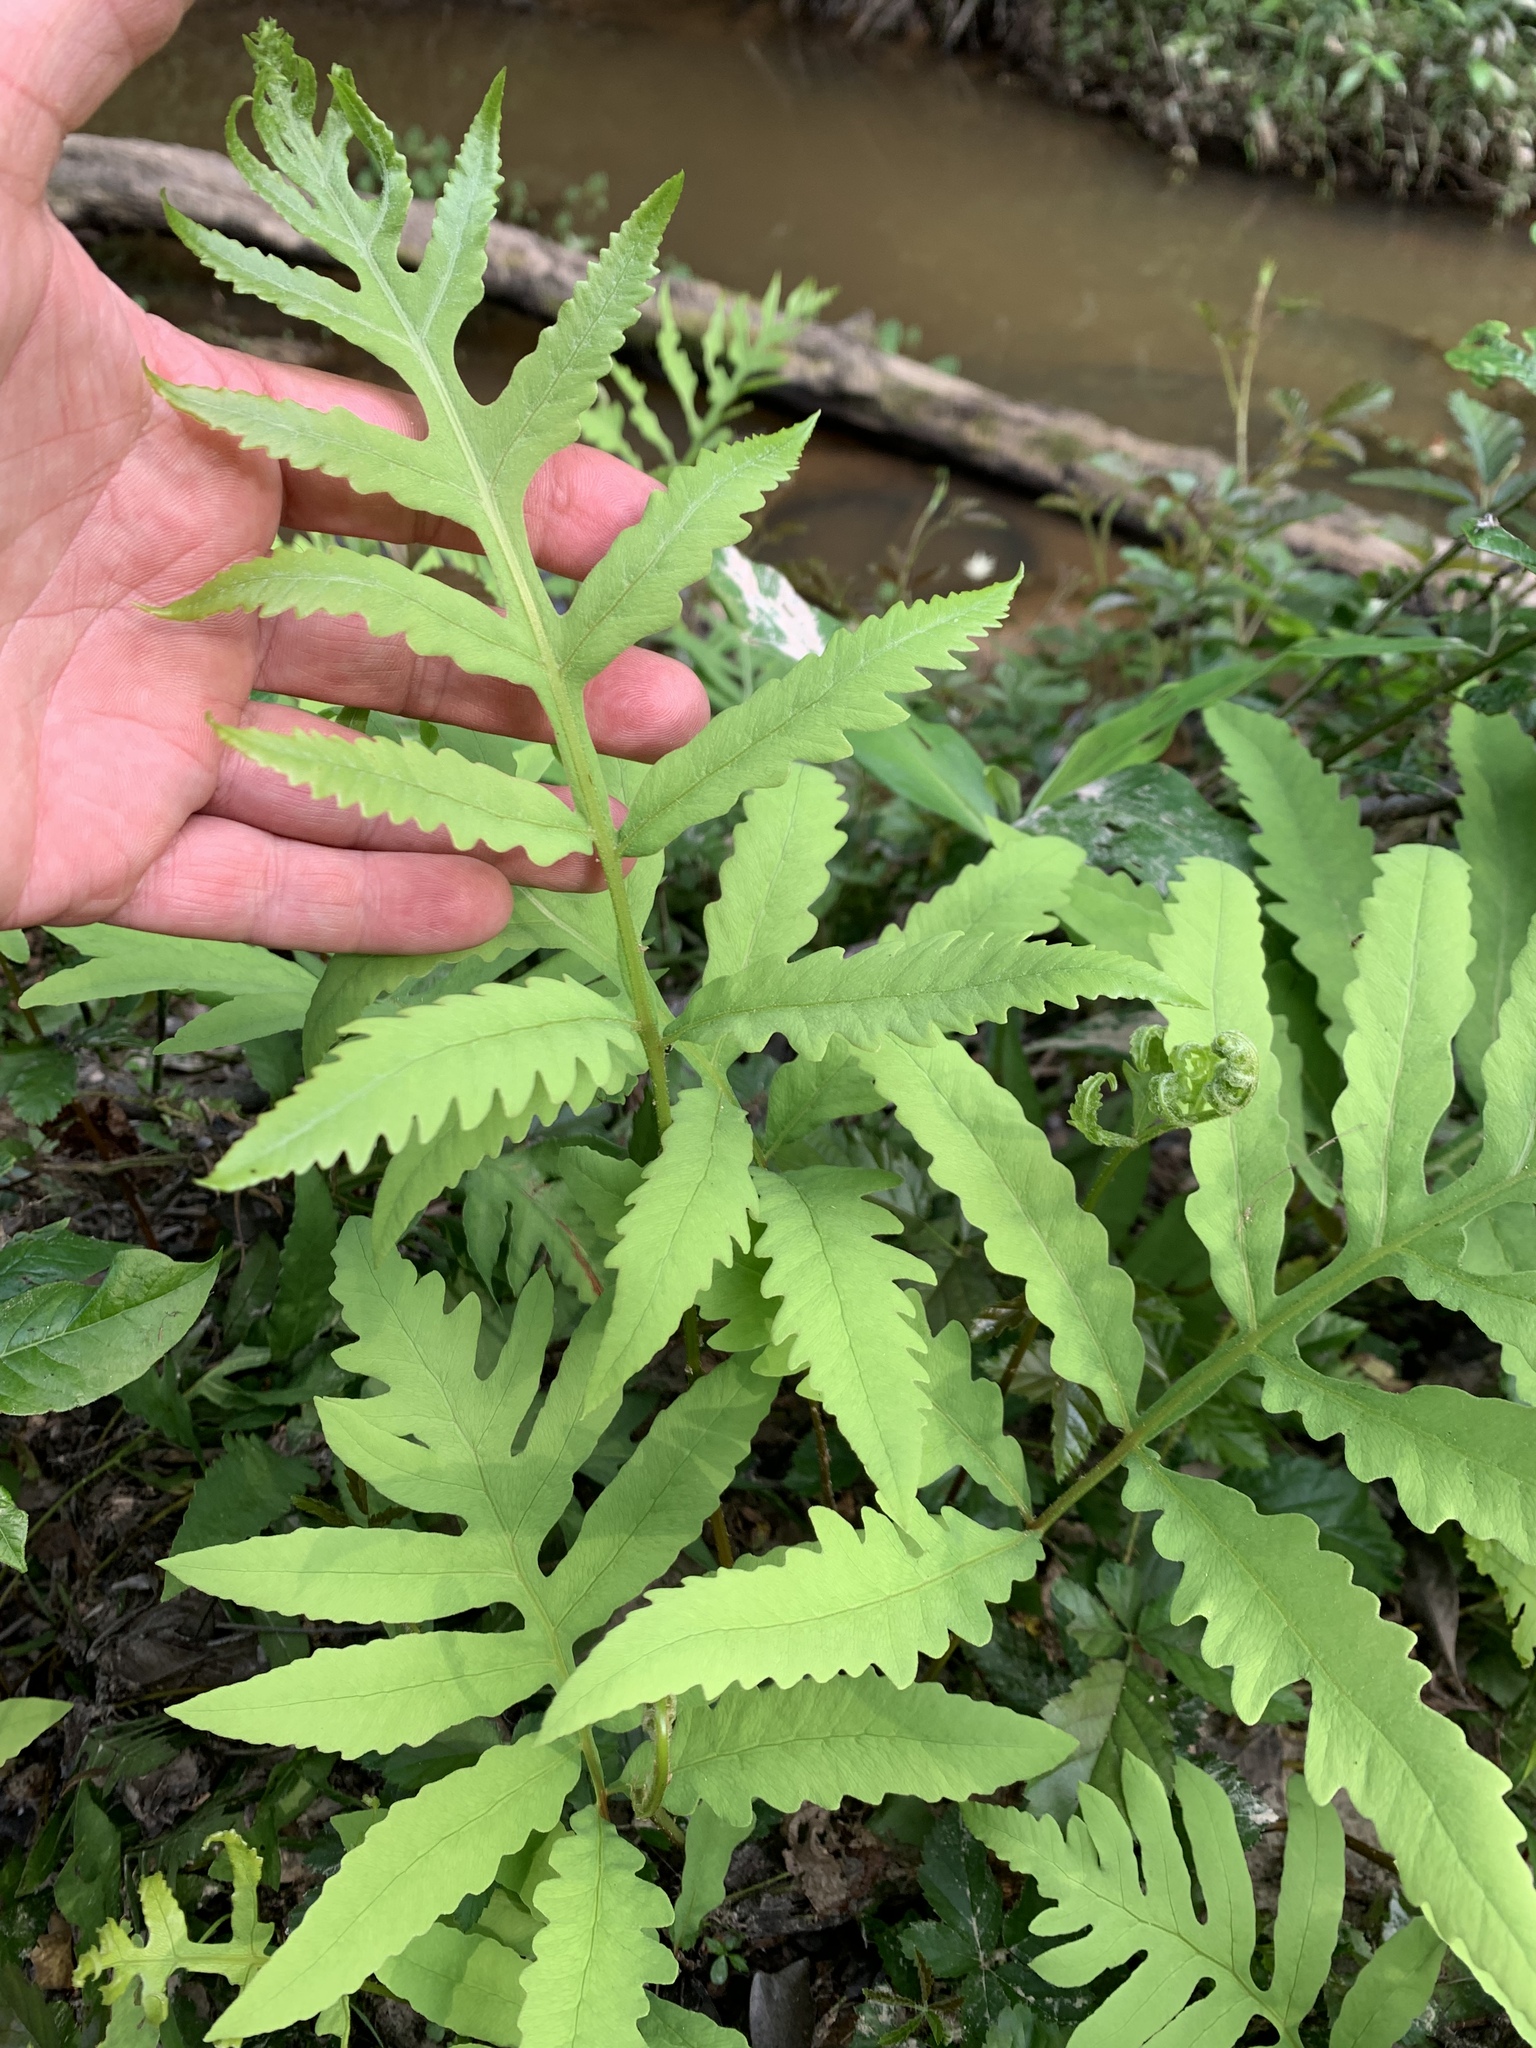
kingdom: Plantae
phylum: Tracheophyta
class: Polypodiopsida
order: Polypodiales
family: Onocleaceae
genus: Onoclea
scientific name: Onoclea sensibilis
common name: Sensitive fern
